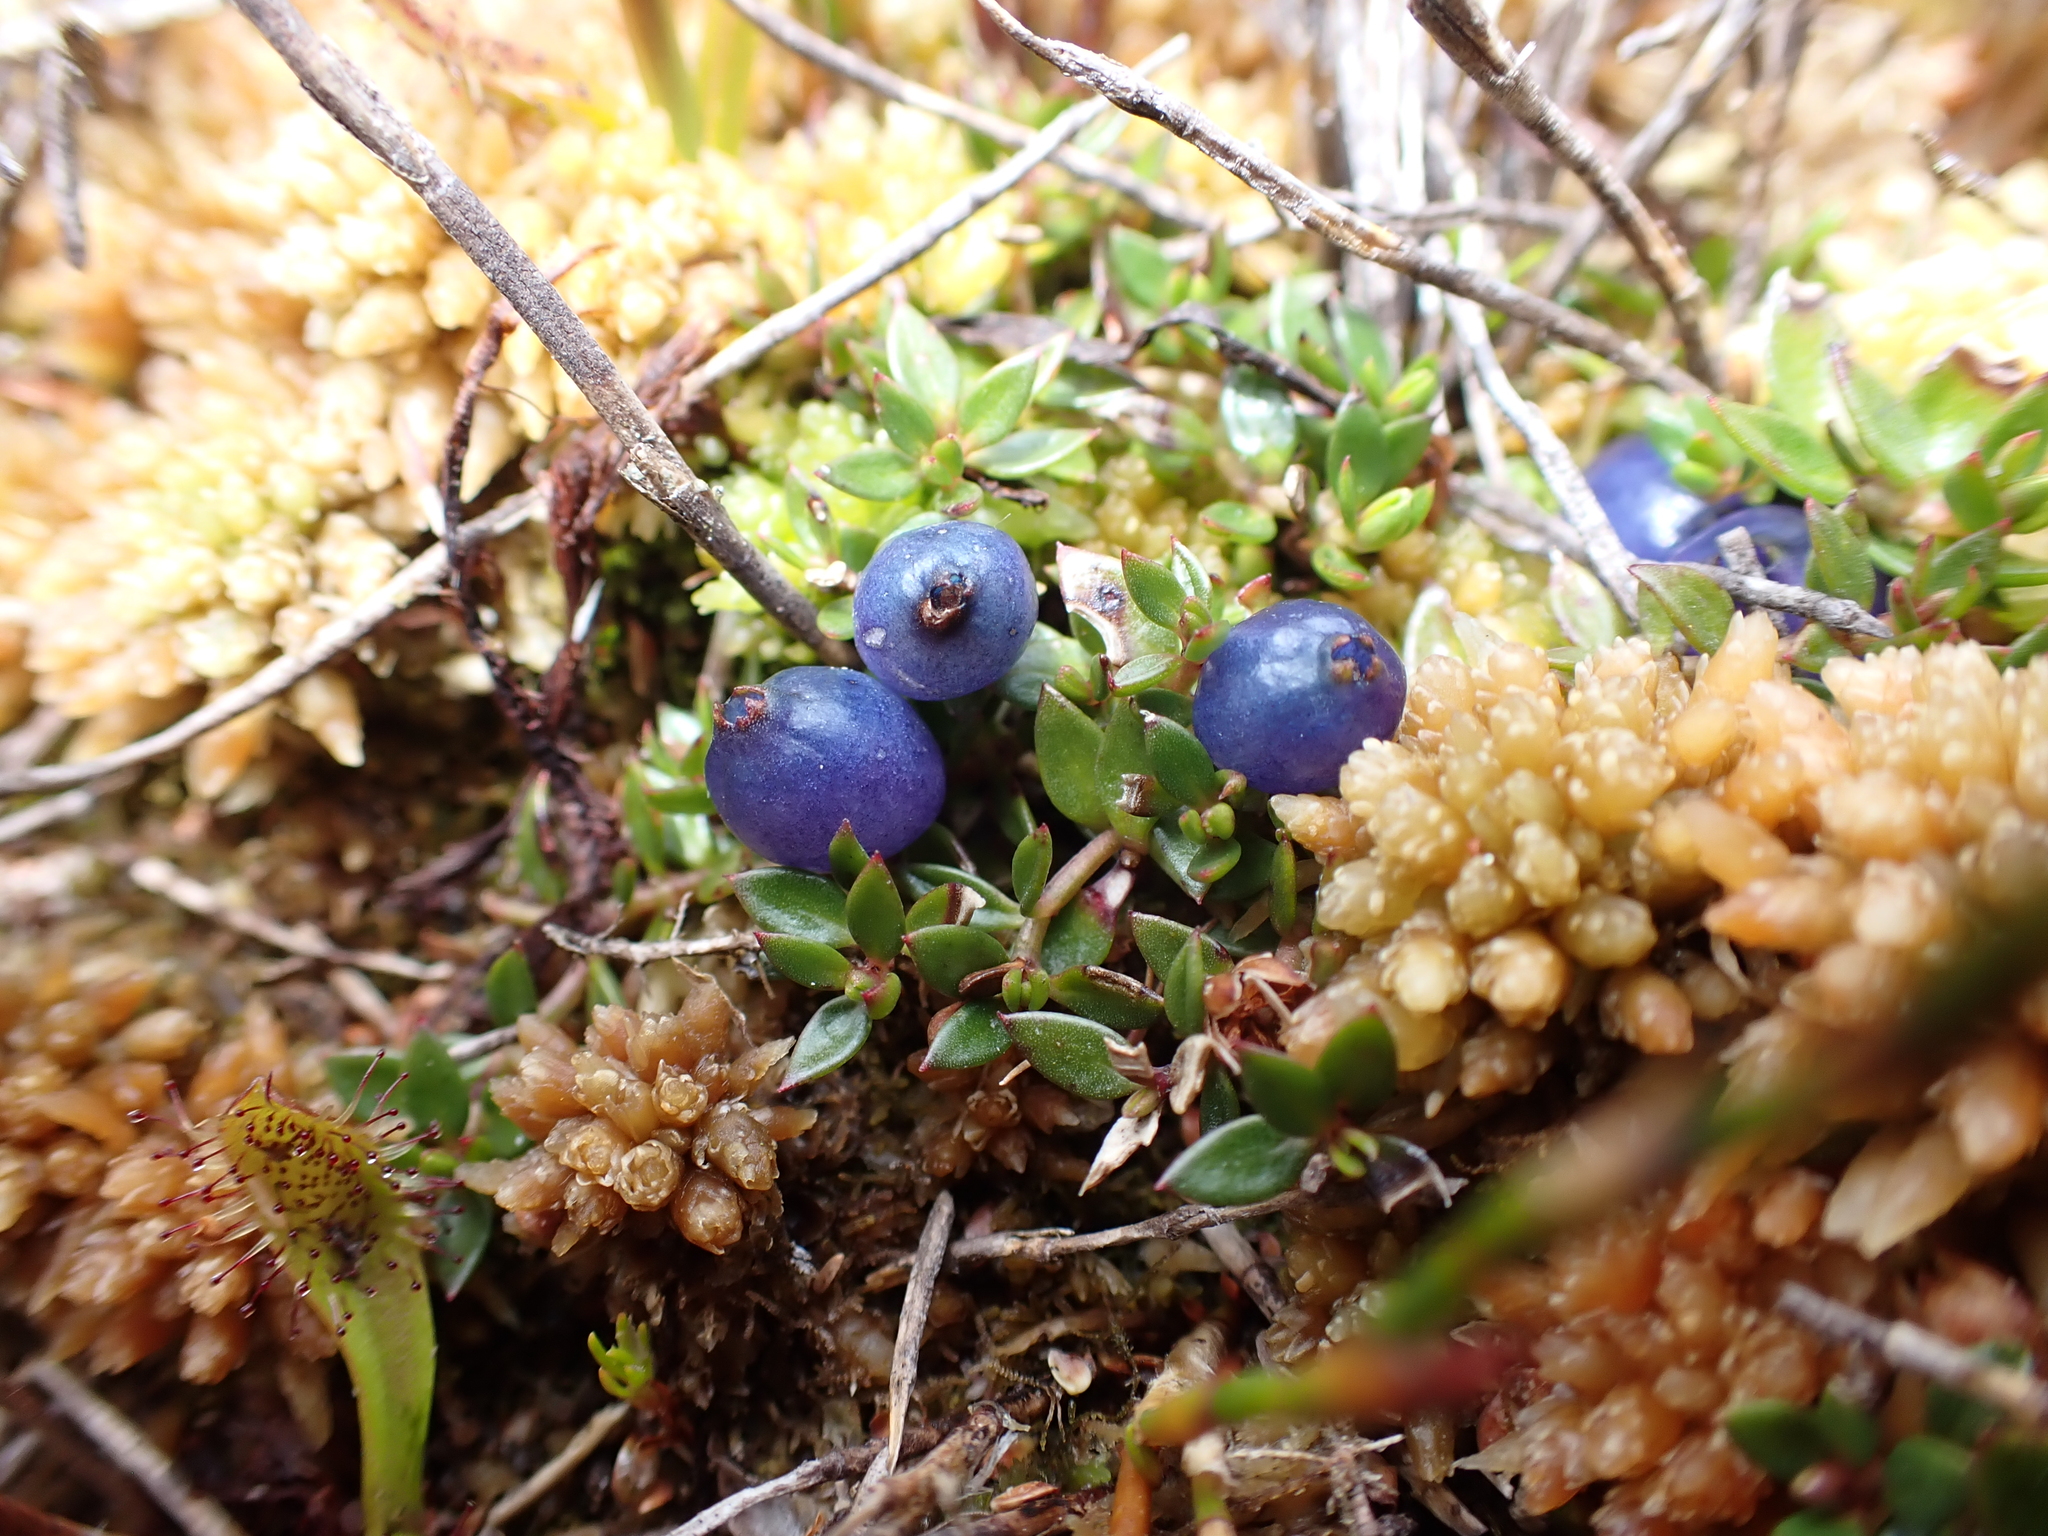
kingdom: Plantae
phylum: Tracheophyta
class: Magnoliopsida
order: Gentianales
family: Rubiaceae
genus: Coprosma
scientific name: Coprosma moorei
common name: Turquoise coprosma
